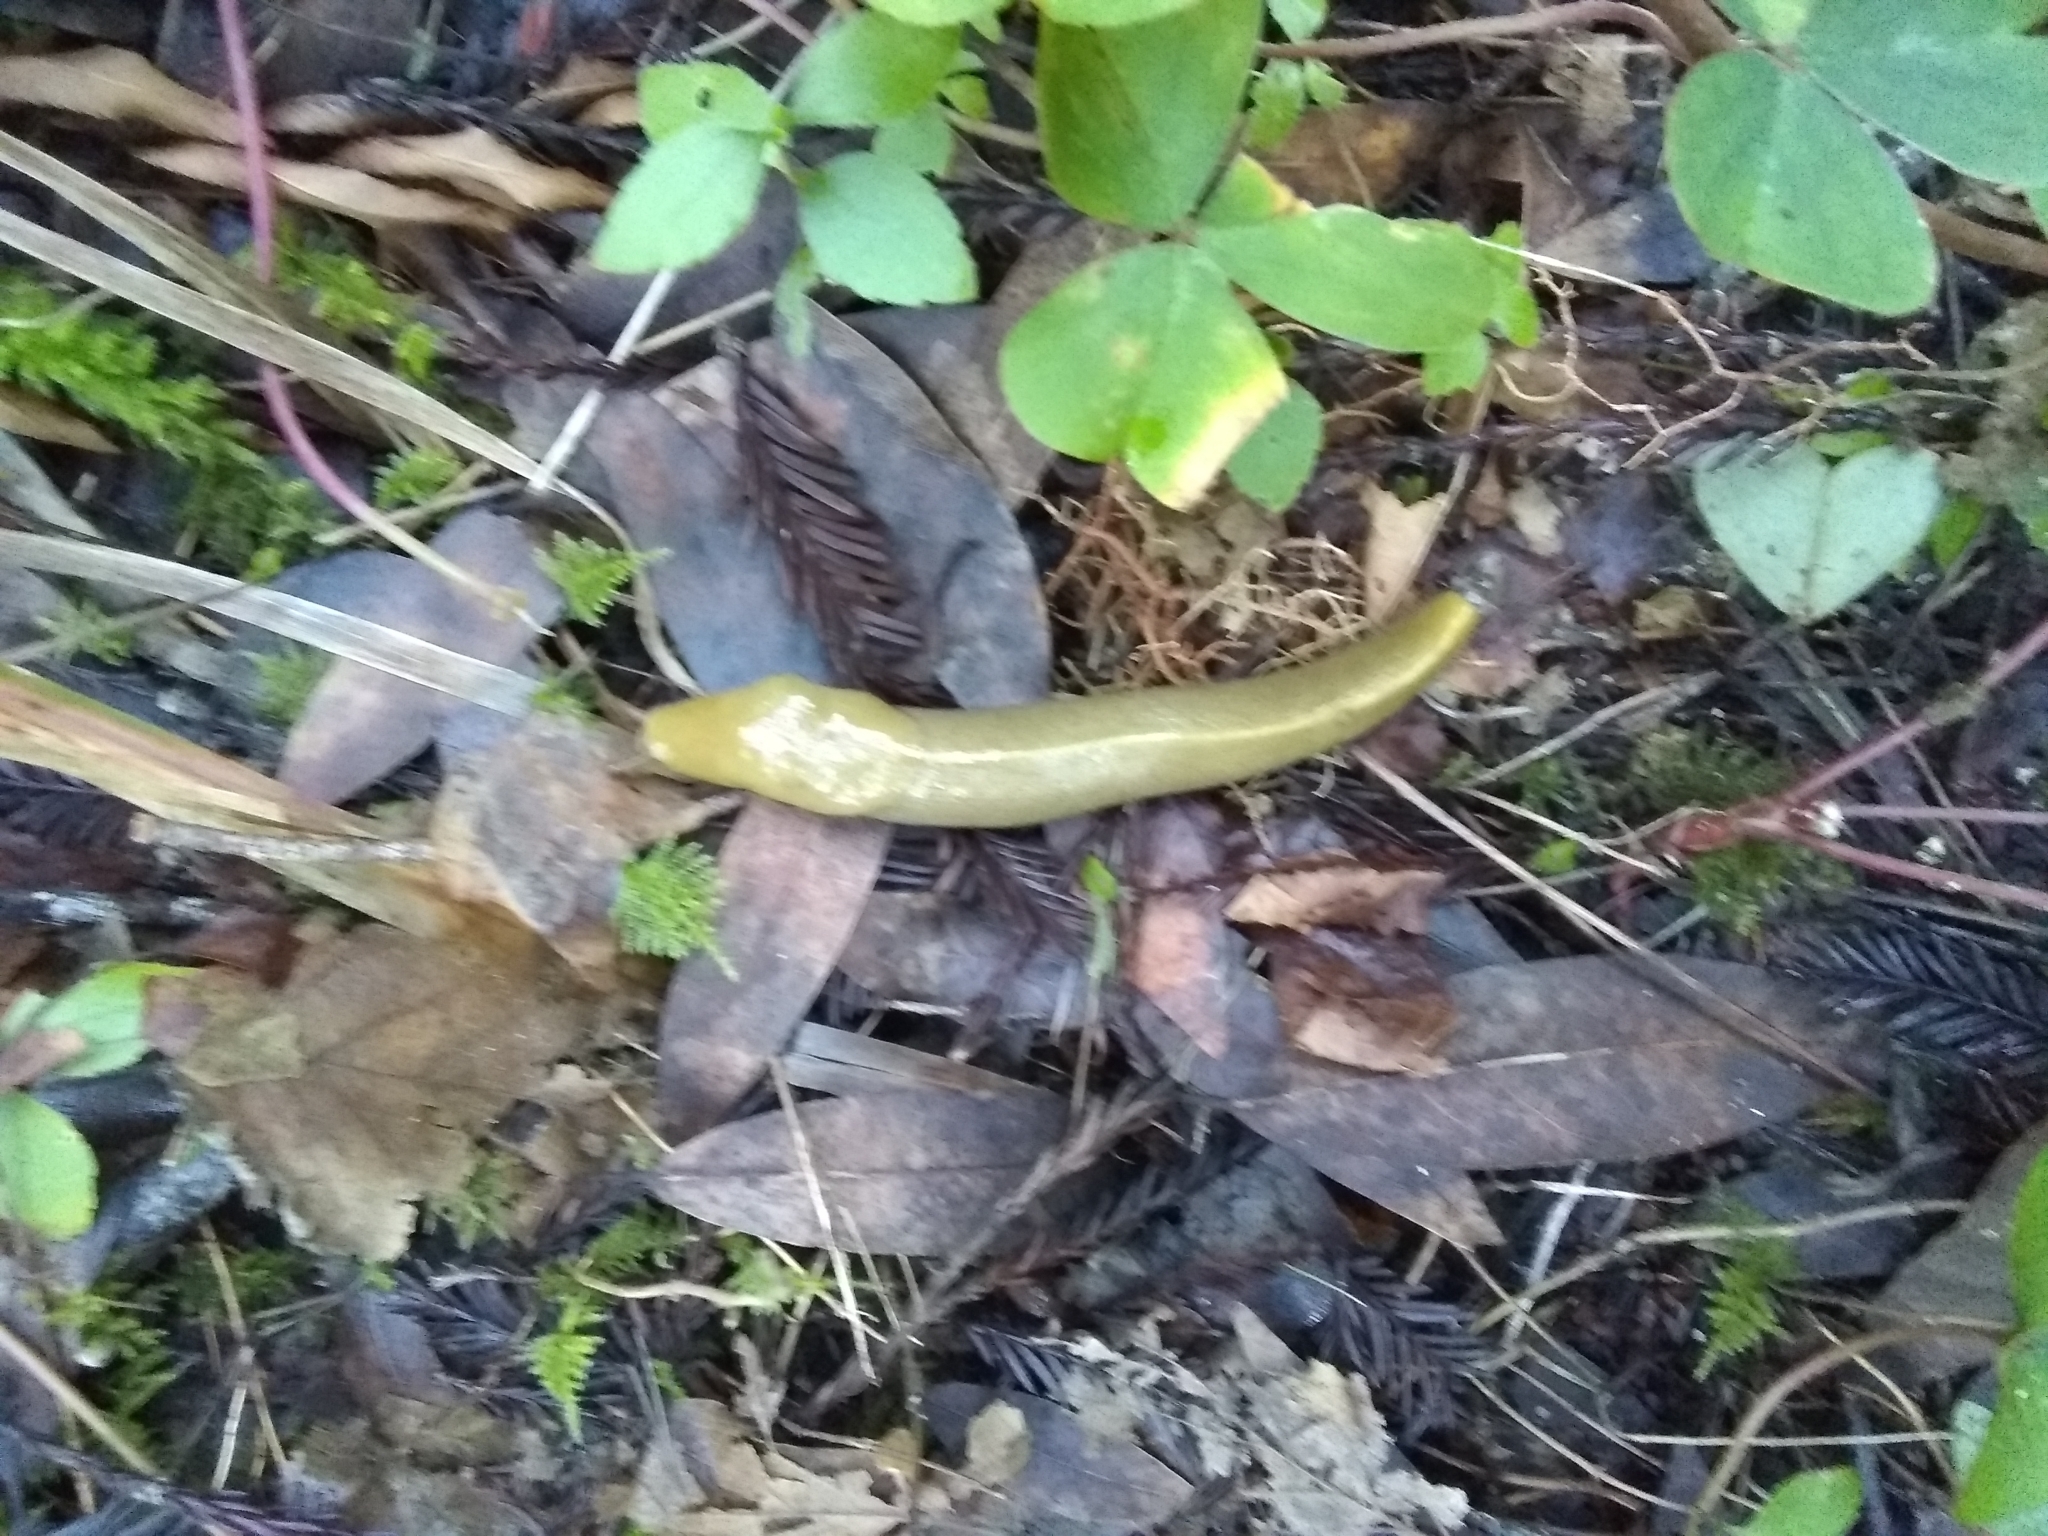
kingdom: Animalia
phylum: Mollusca
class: Gastropoda
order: Stylommatophora
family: Ariolimacidae
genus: Ariolimax
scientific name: Ariolimax buttoni
